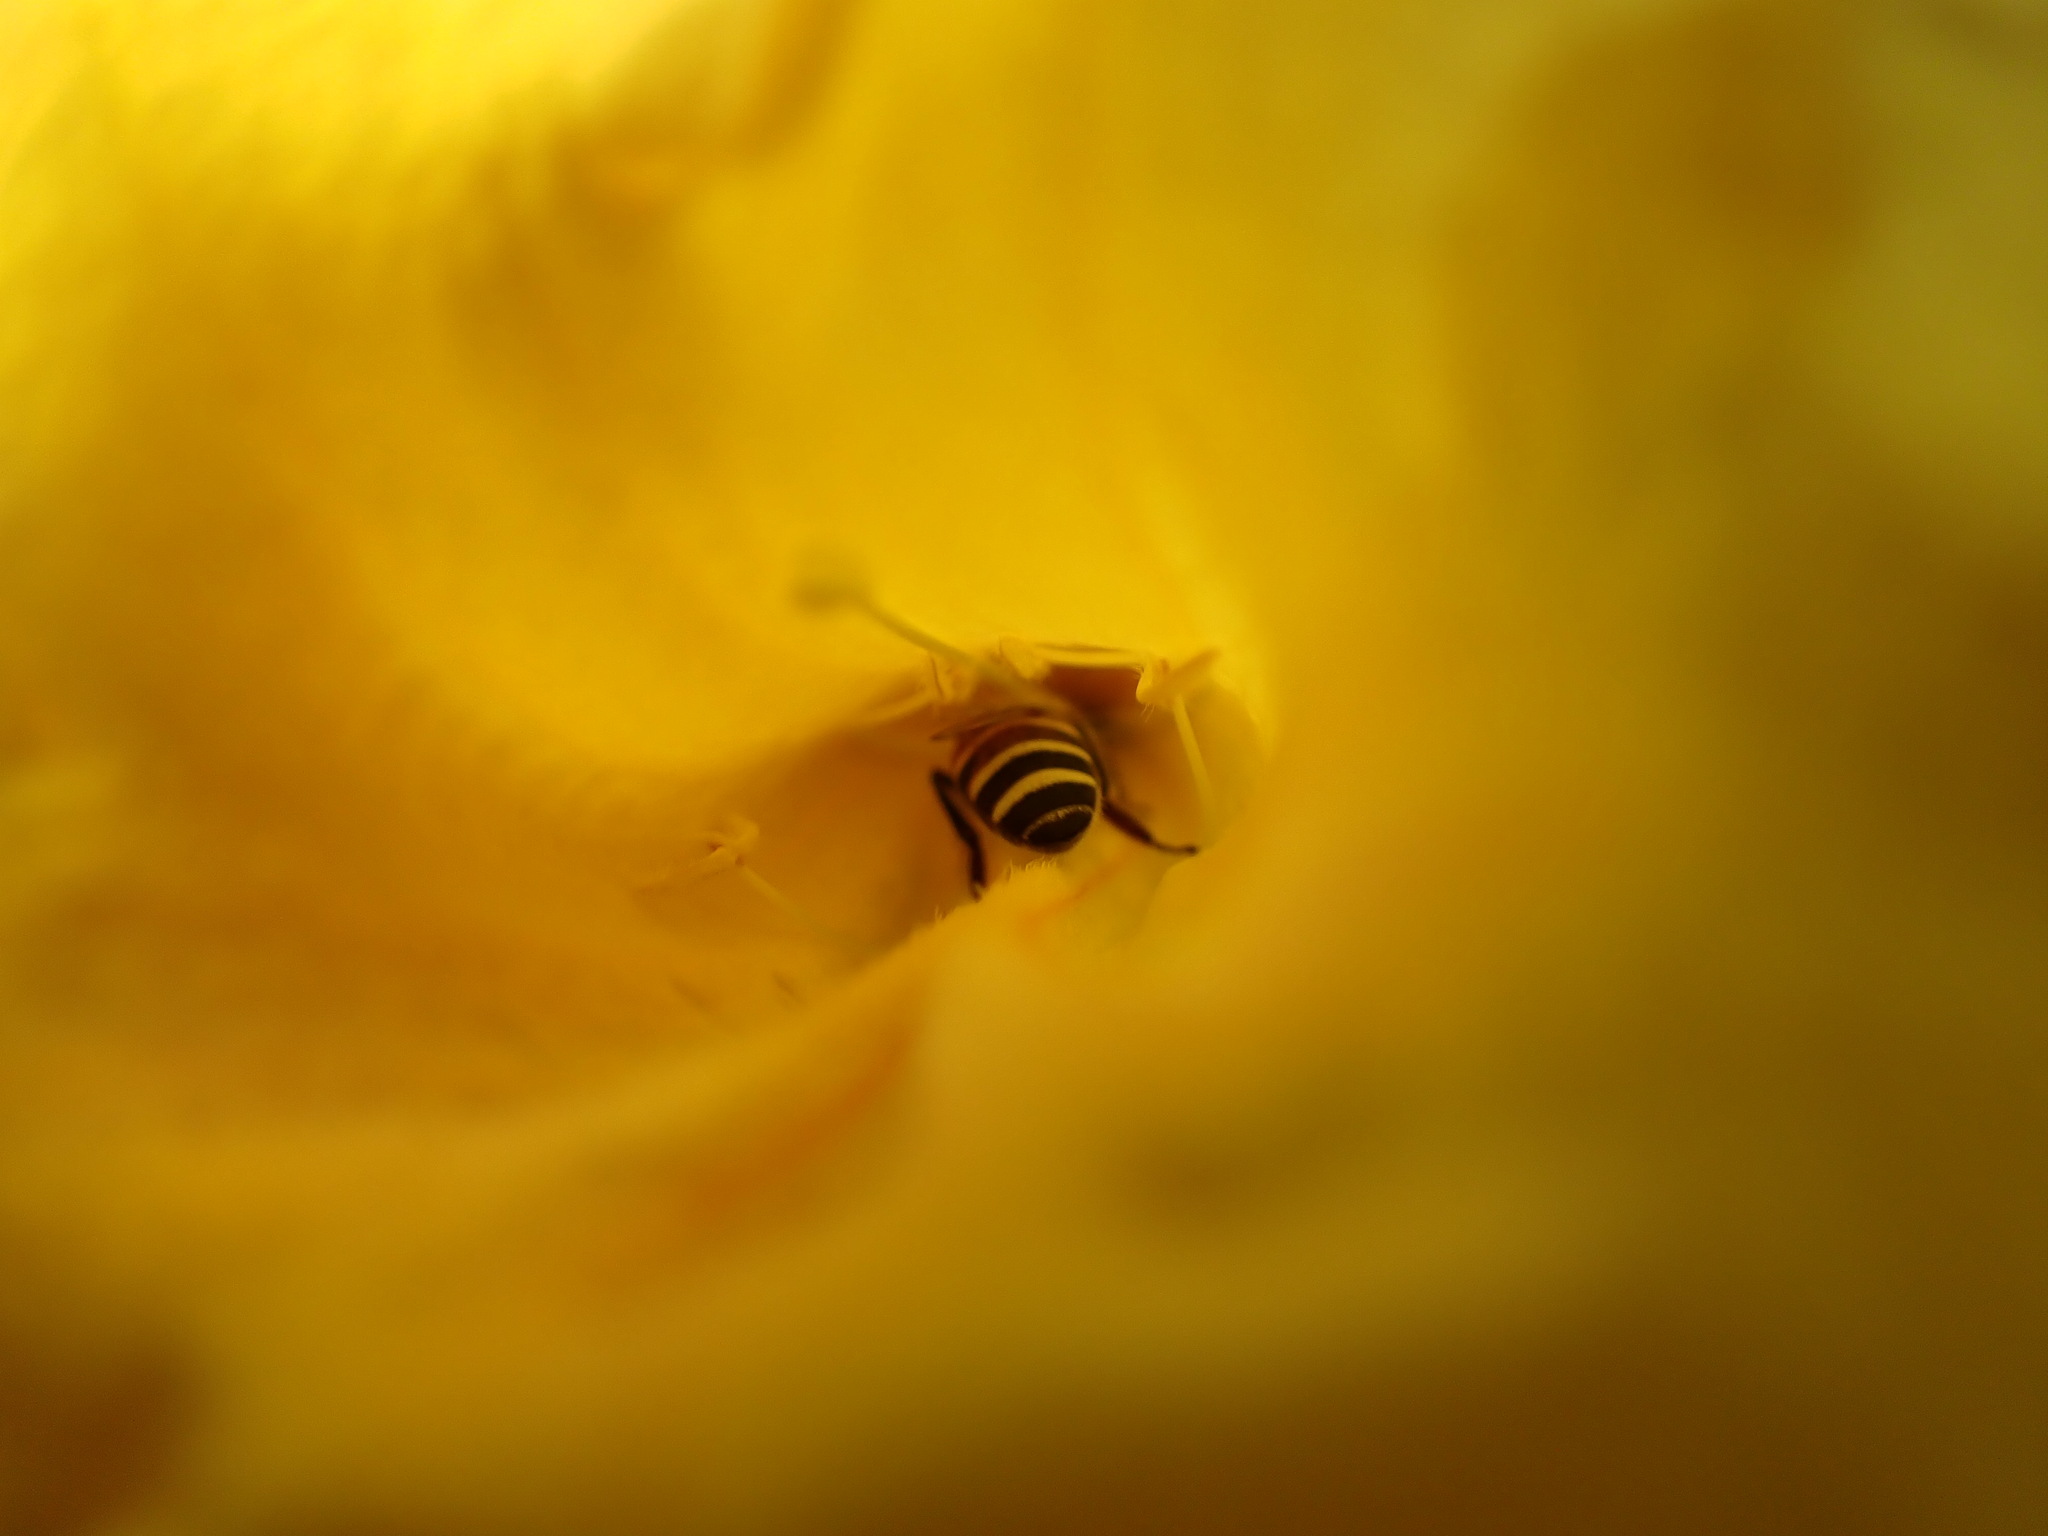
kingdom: Animalia
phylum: Arthropoda
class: Insecta
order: Hymenoptera
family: Apidae
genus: Apis
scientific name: Apis cerana
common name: Honey bee
